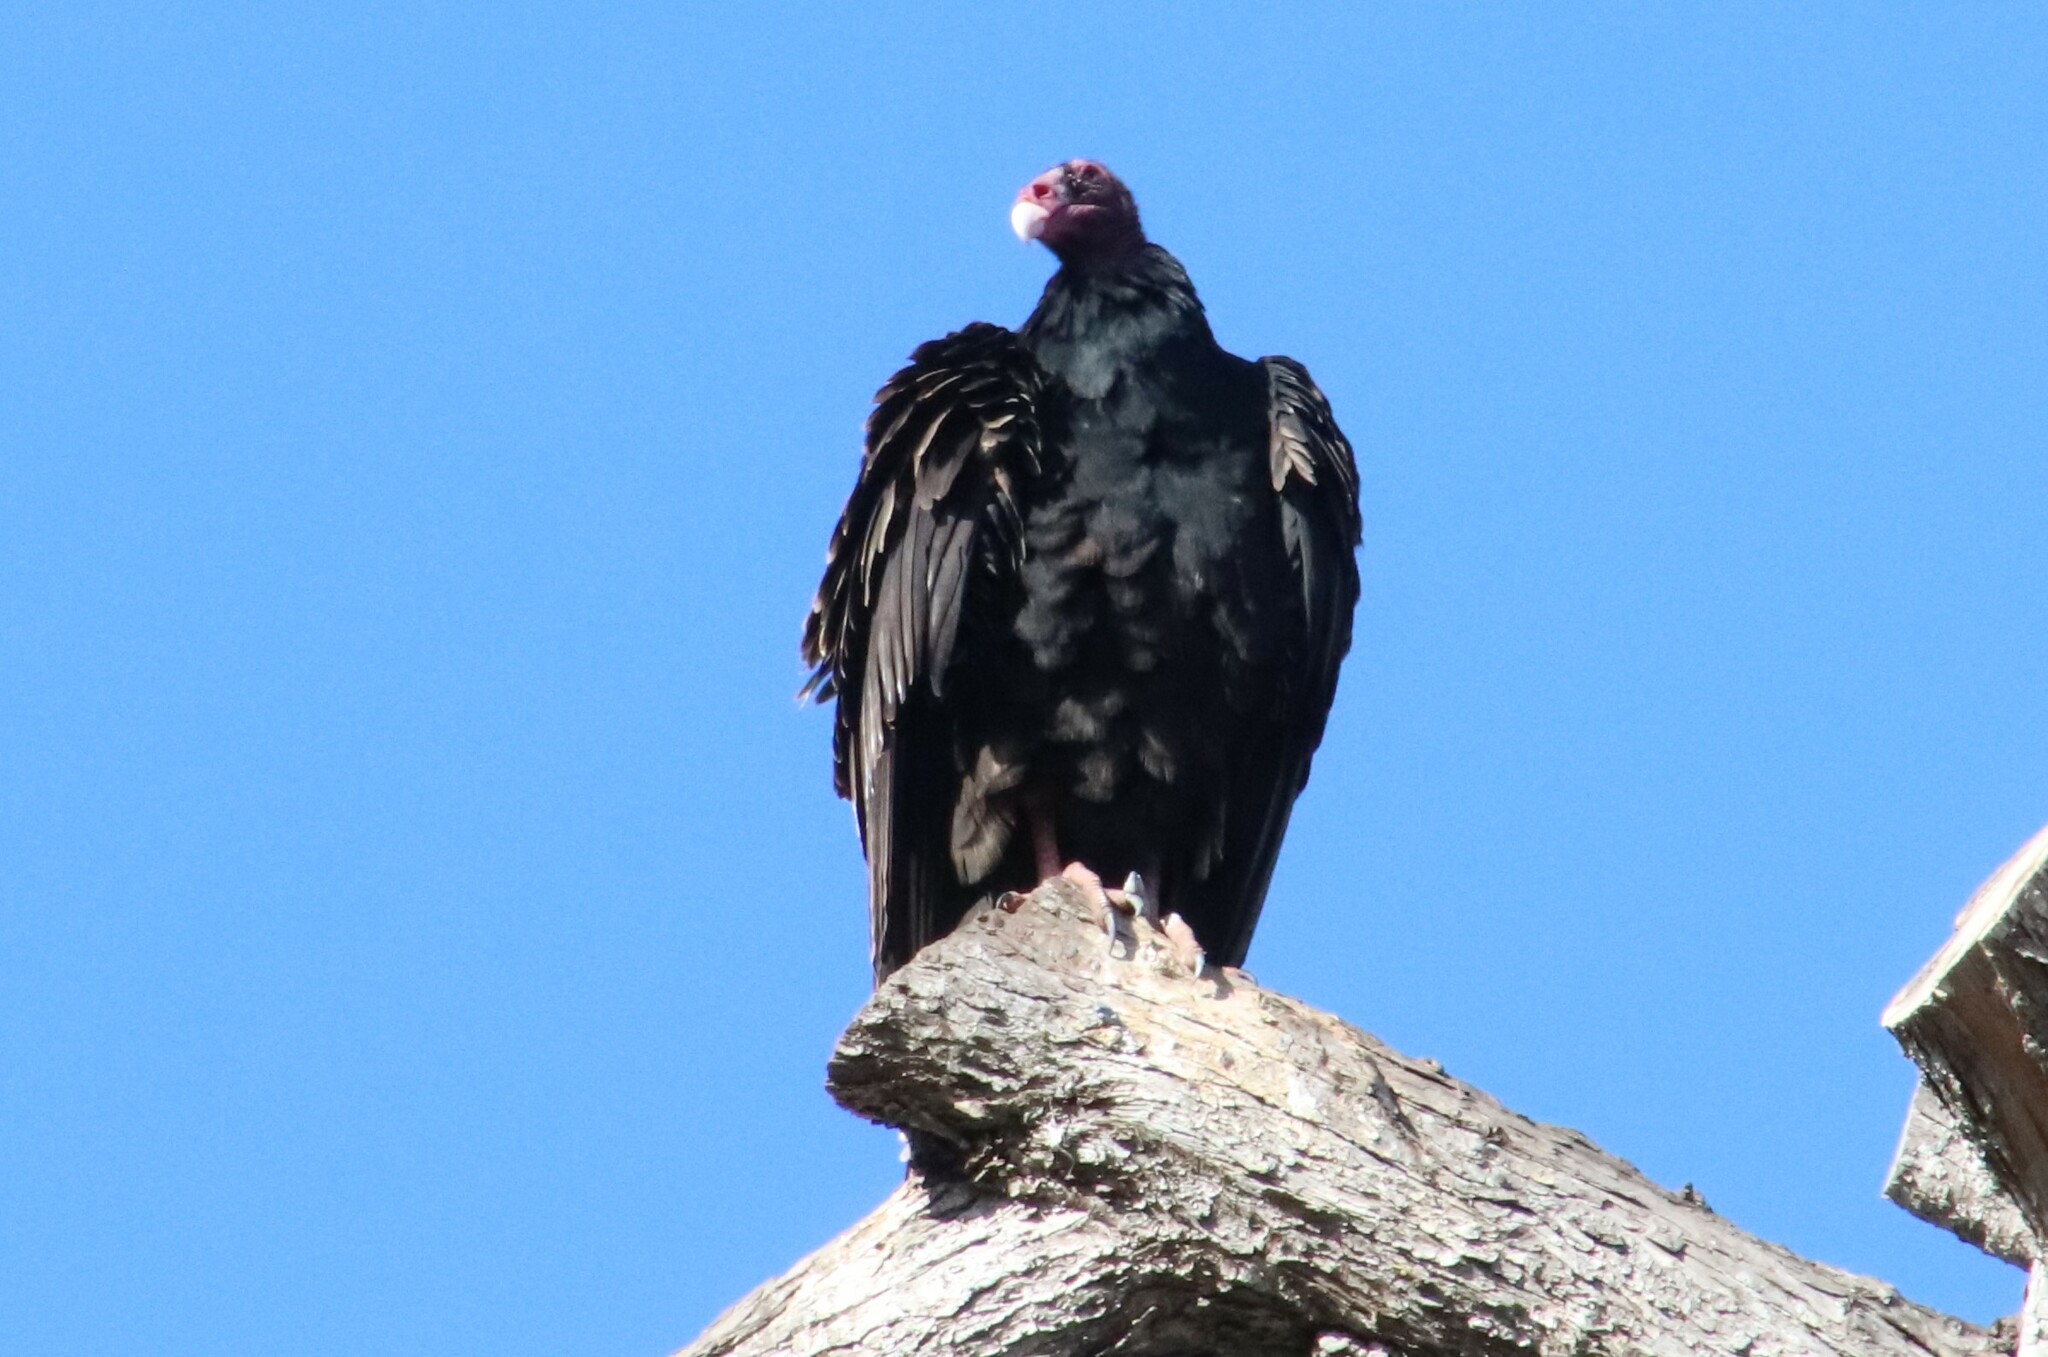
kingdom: Animalia
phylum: Chordata
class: Aves
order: Accipitriformes
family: Cathartidae
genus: Cathartes
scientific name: Cathartes aura
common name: Turkey vulture
